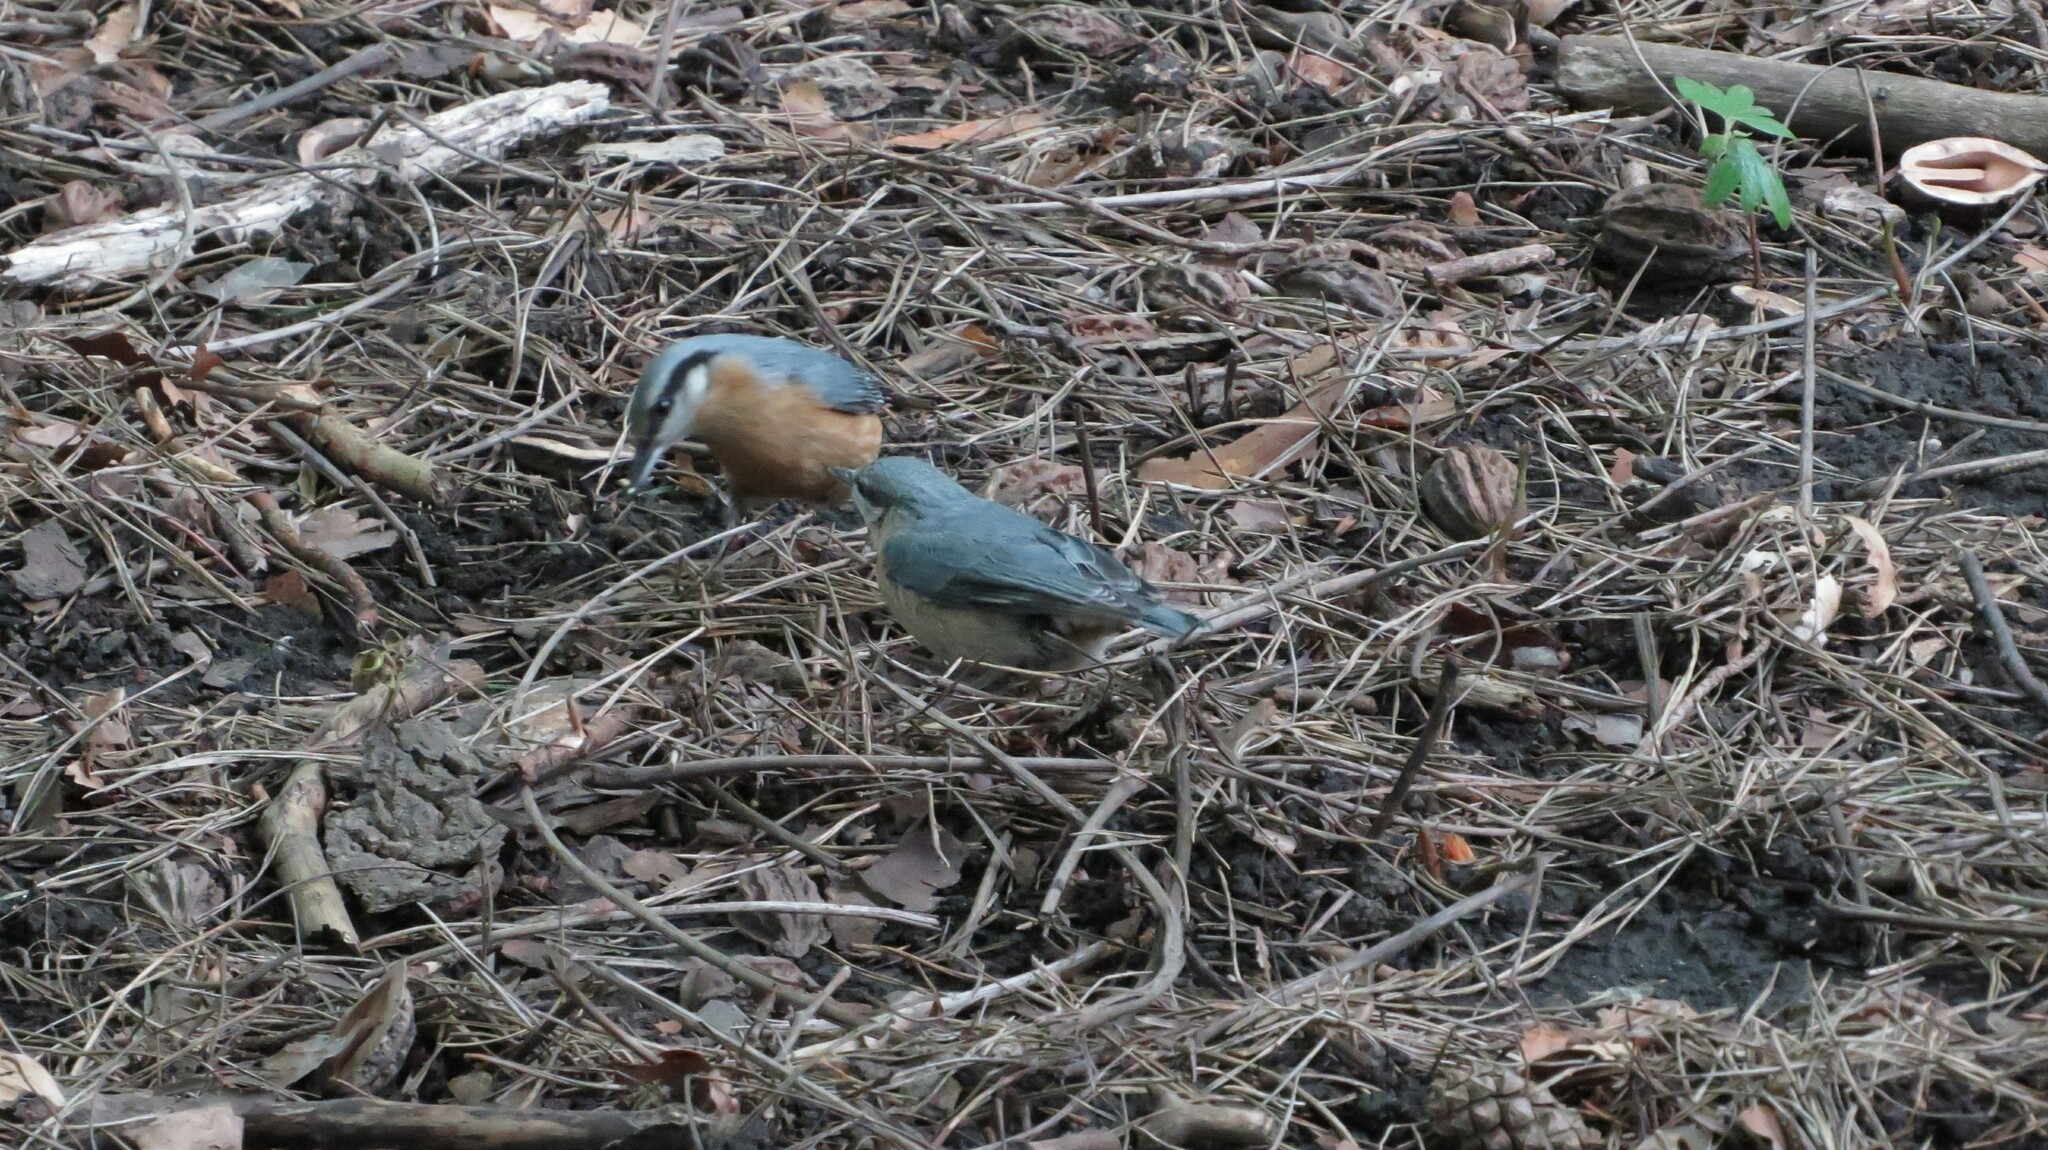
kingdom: Animalia
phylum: Chordata
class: Aves
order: Passeriformes
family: Sittidae
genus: Sitta
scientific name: Sitta europaea
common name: Eurasian nuthatch
